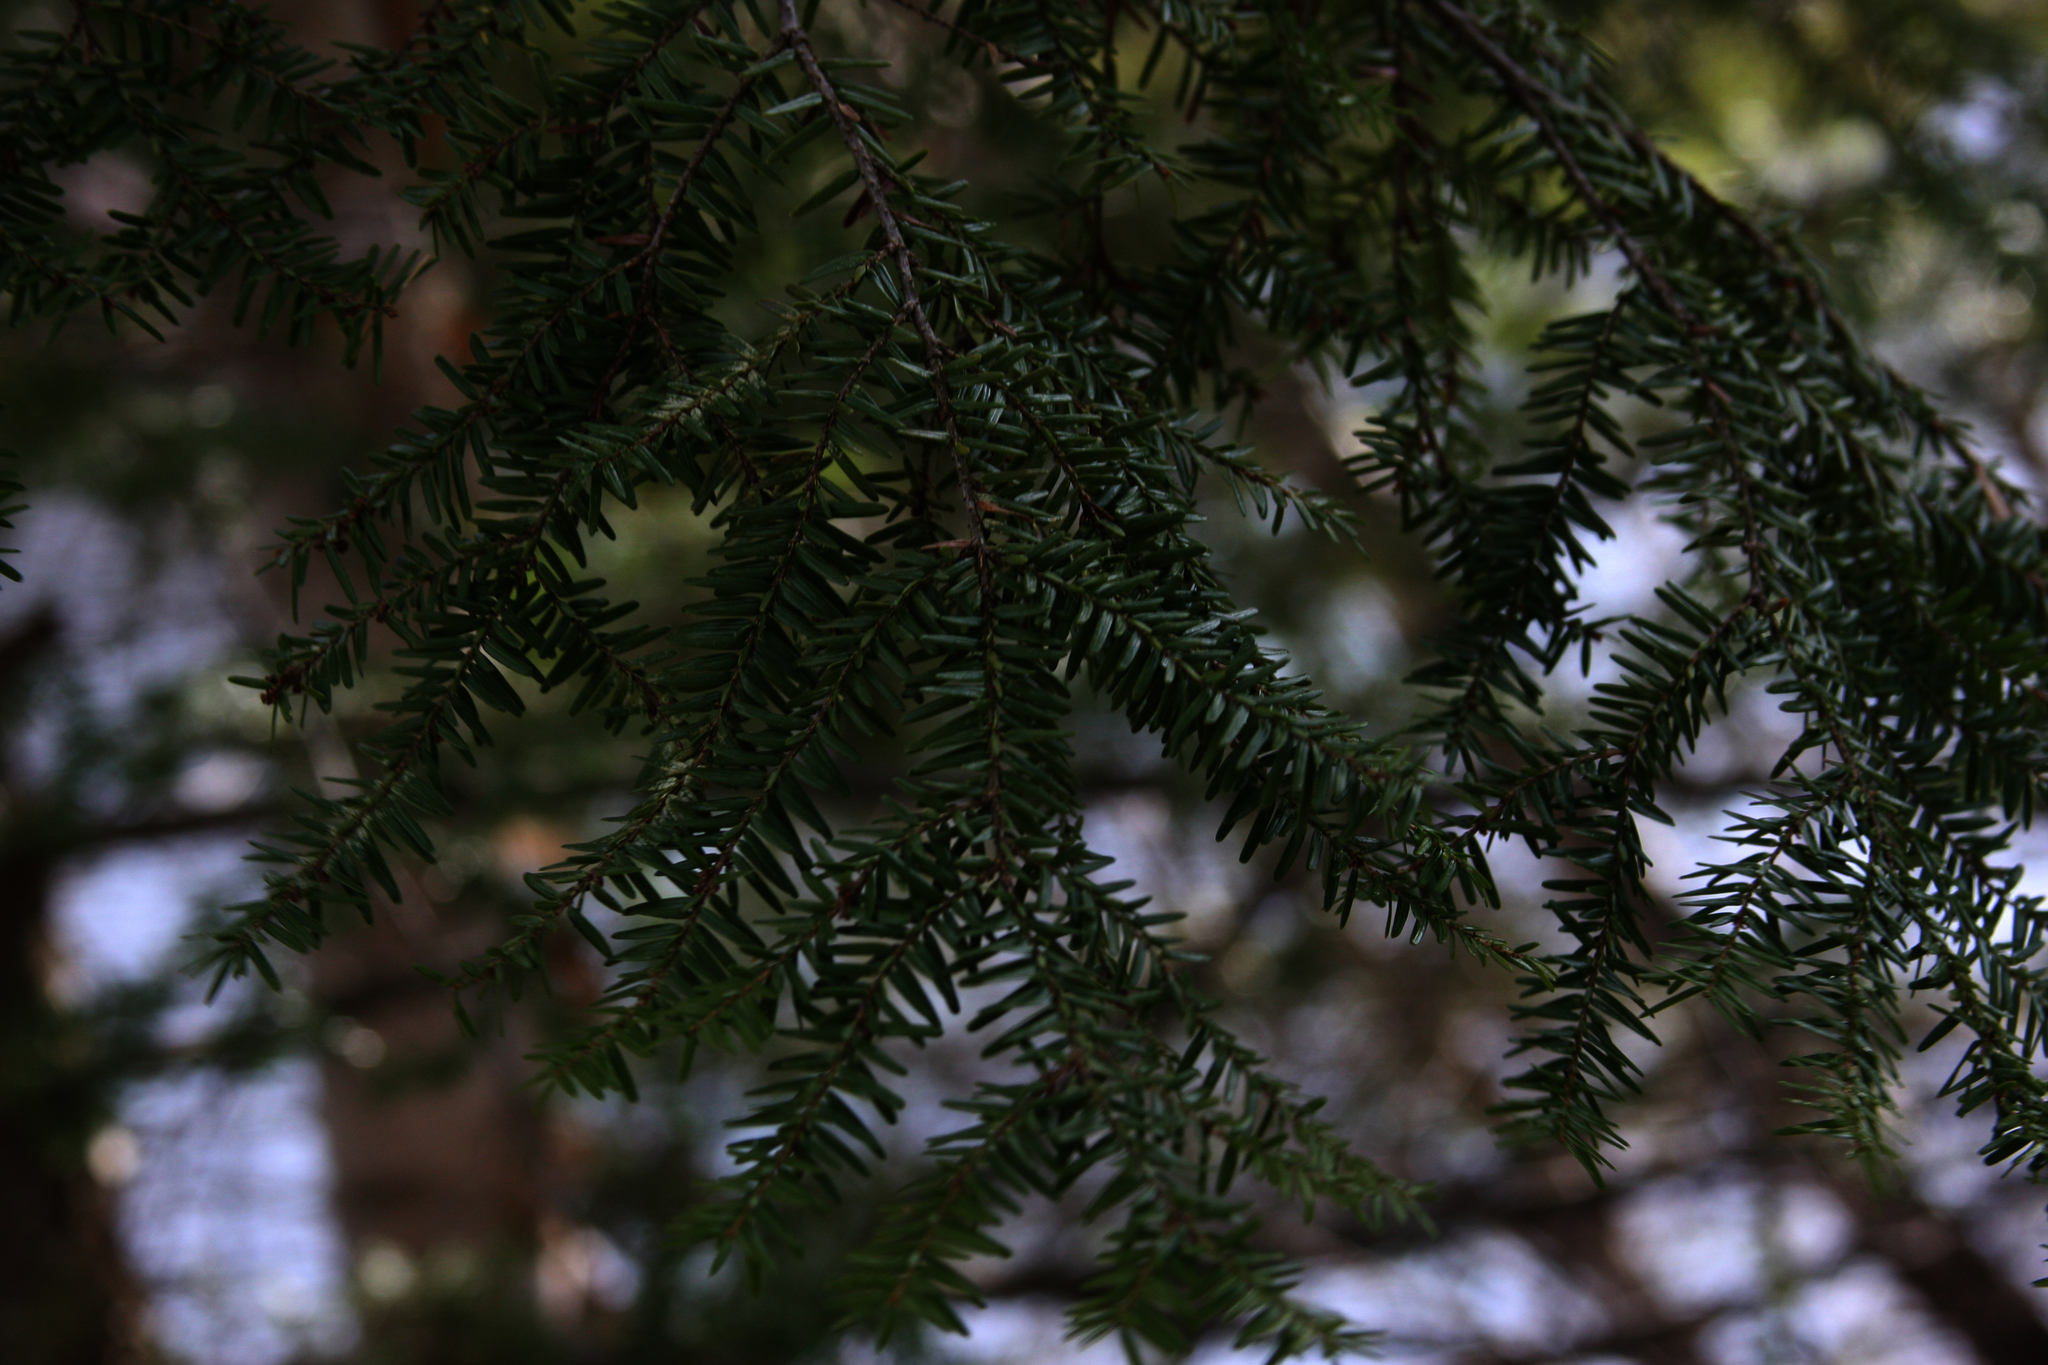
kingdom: Plantae
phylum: Tracheophyta
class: Pinopsida
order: Pinales
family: Pinaceae
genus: Tsuga
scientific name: Tsuga canadensis
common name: Eastern hemlock
